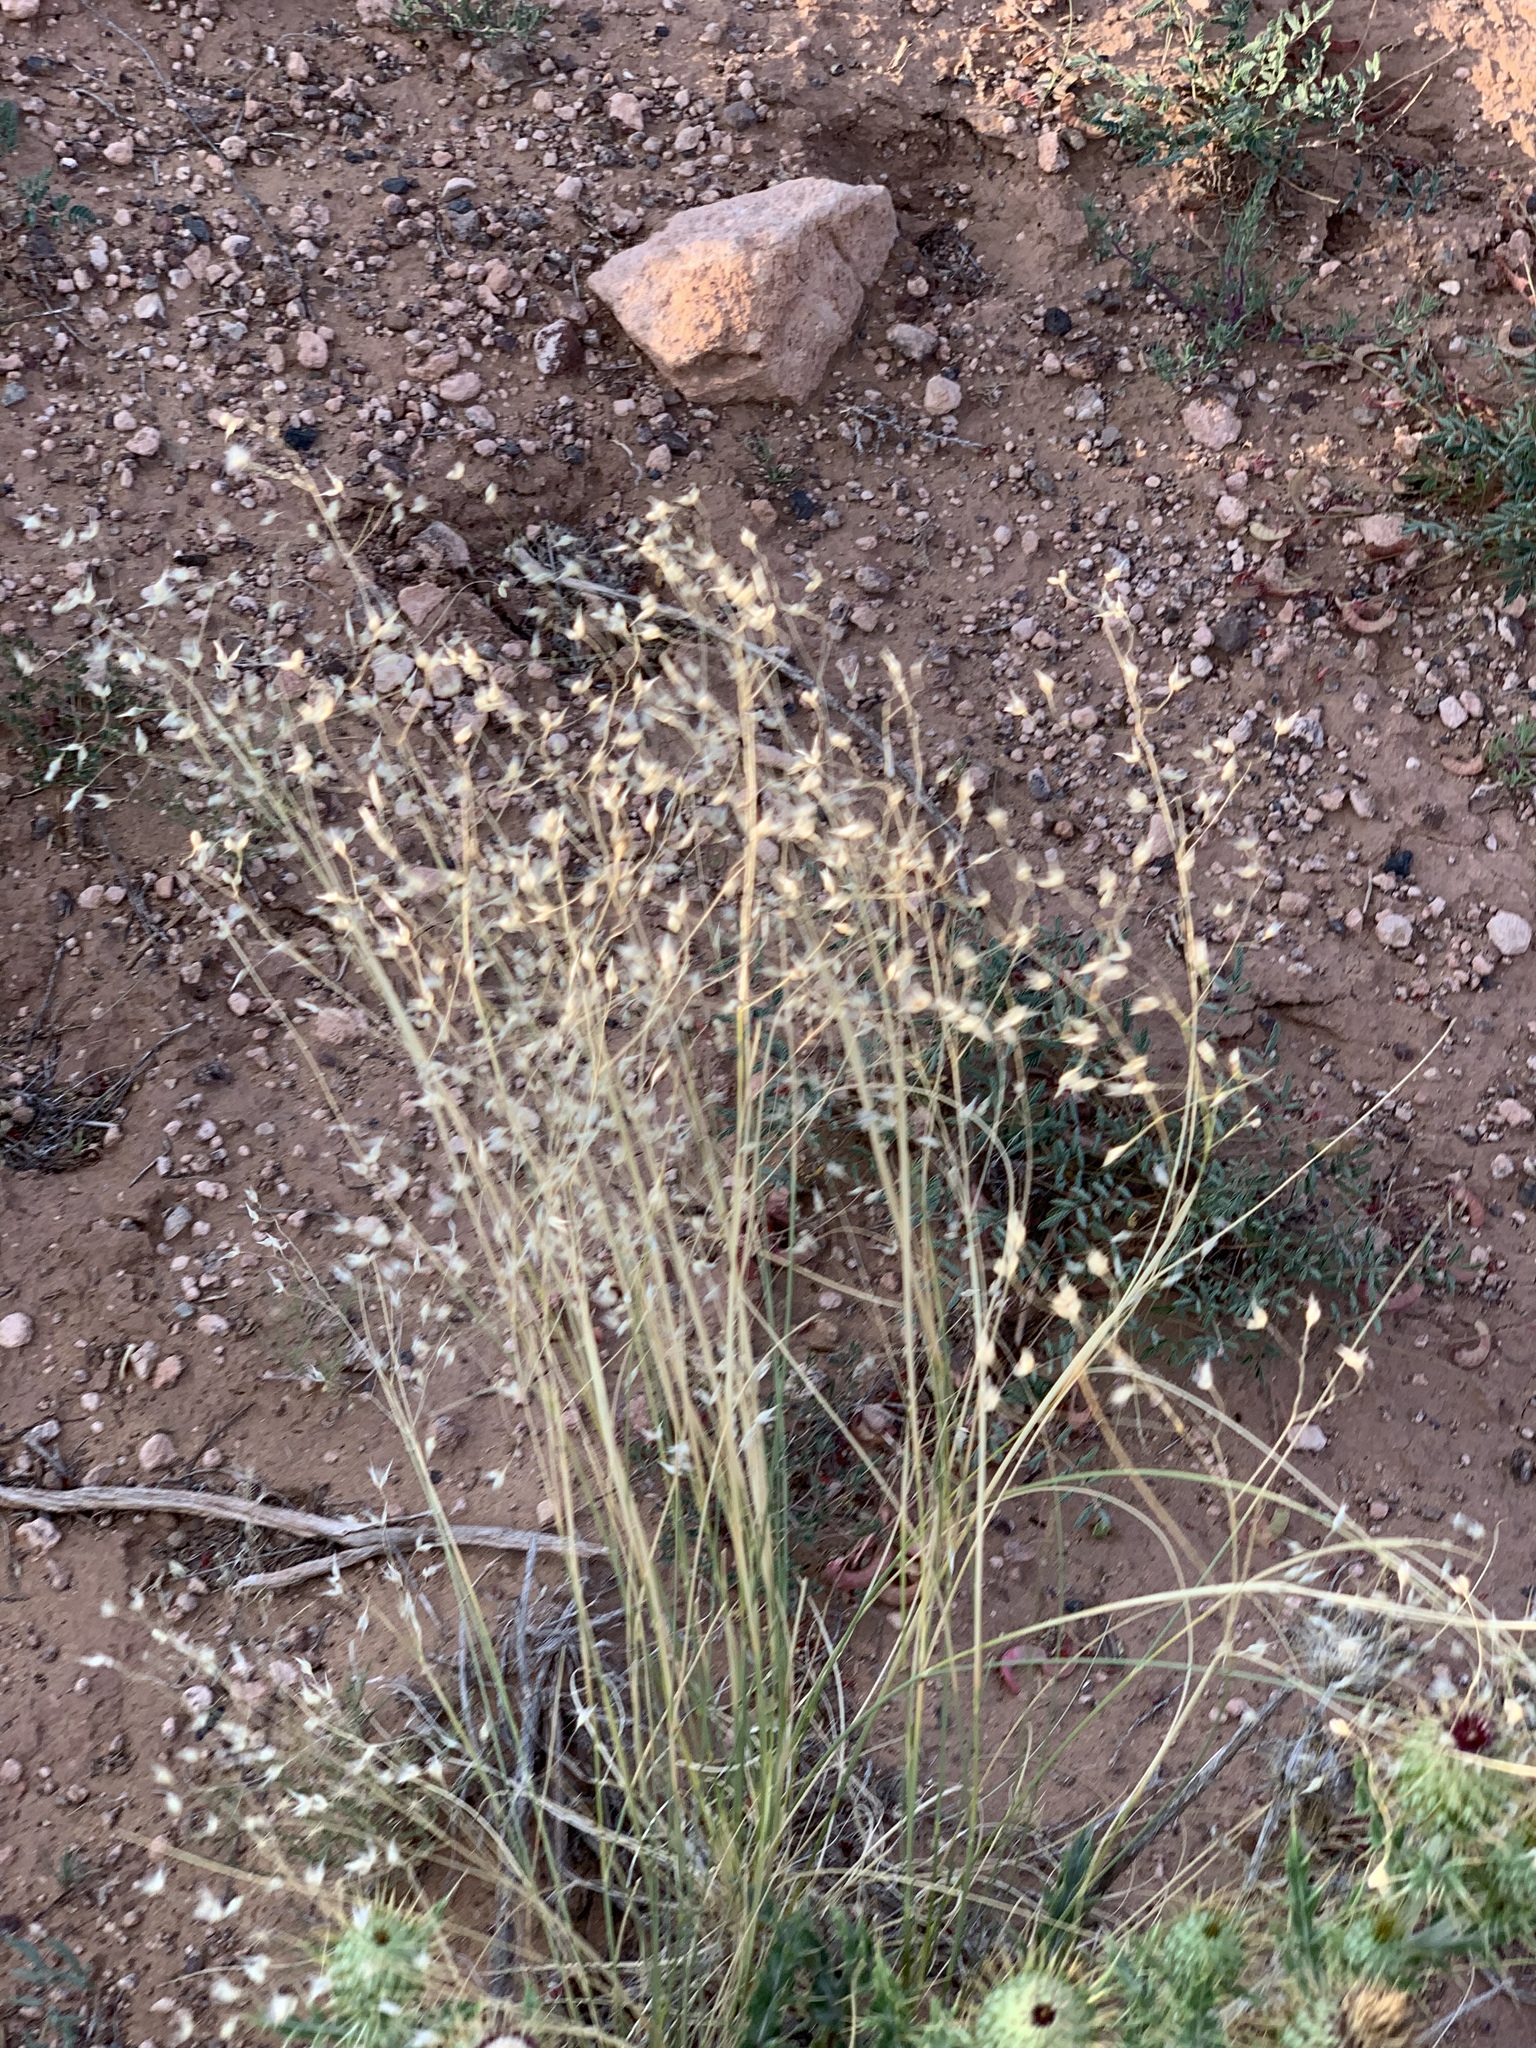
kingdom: Plantae
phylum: Tracheophyta
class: Liliopsida
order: Poales
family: Poaceae
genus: Eriocoma
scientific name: Eriocoma hymenoides
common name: Indian mountain ricegrass
